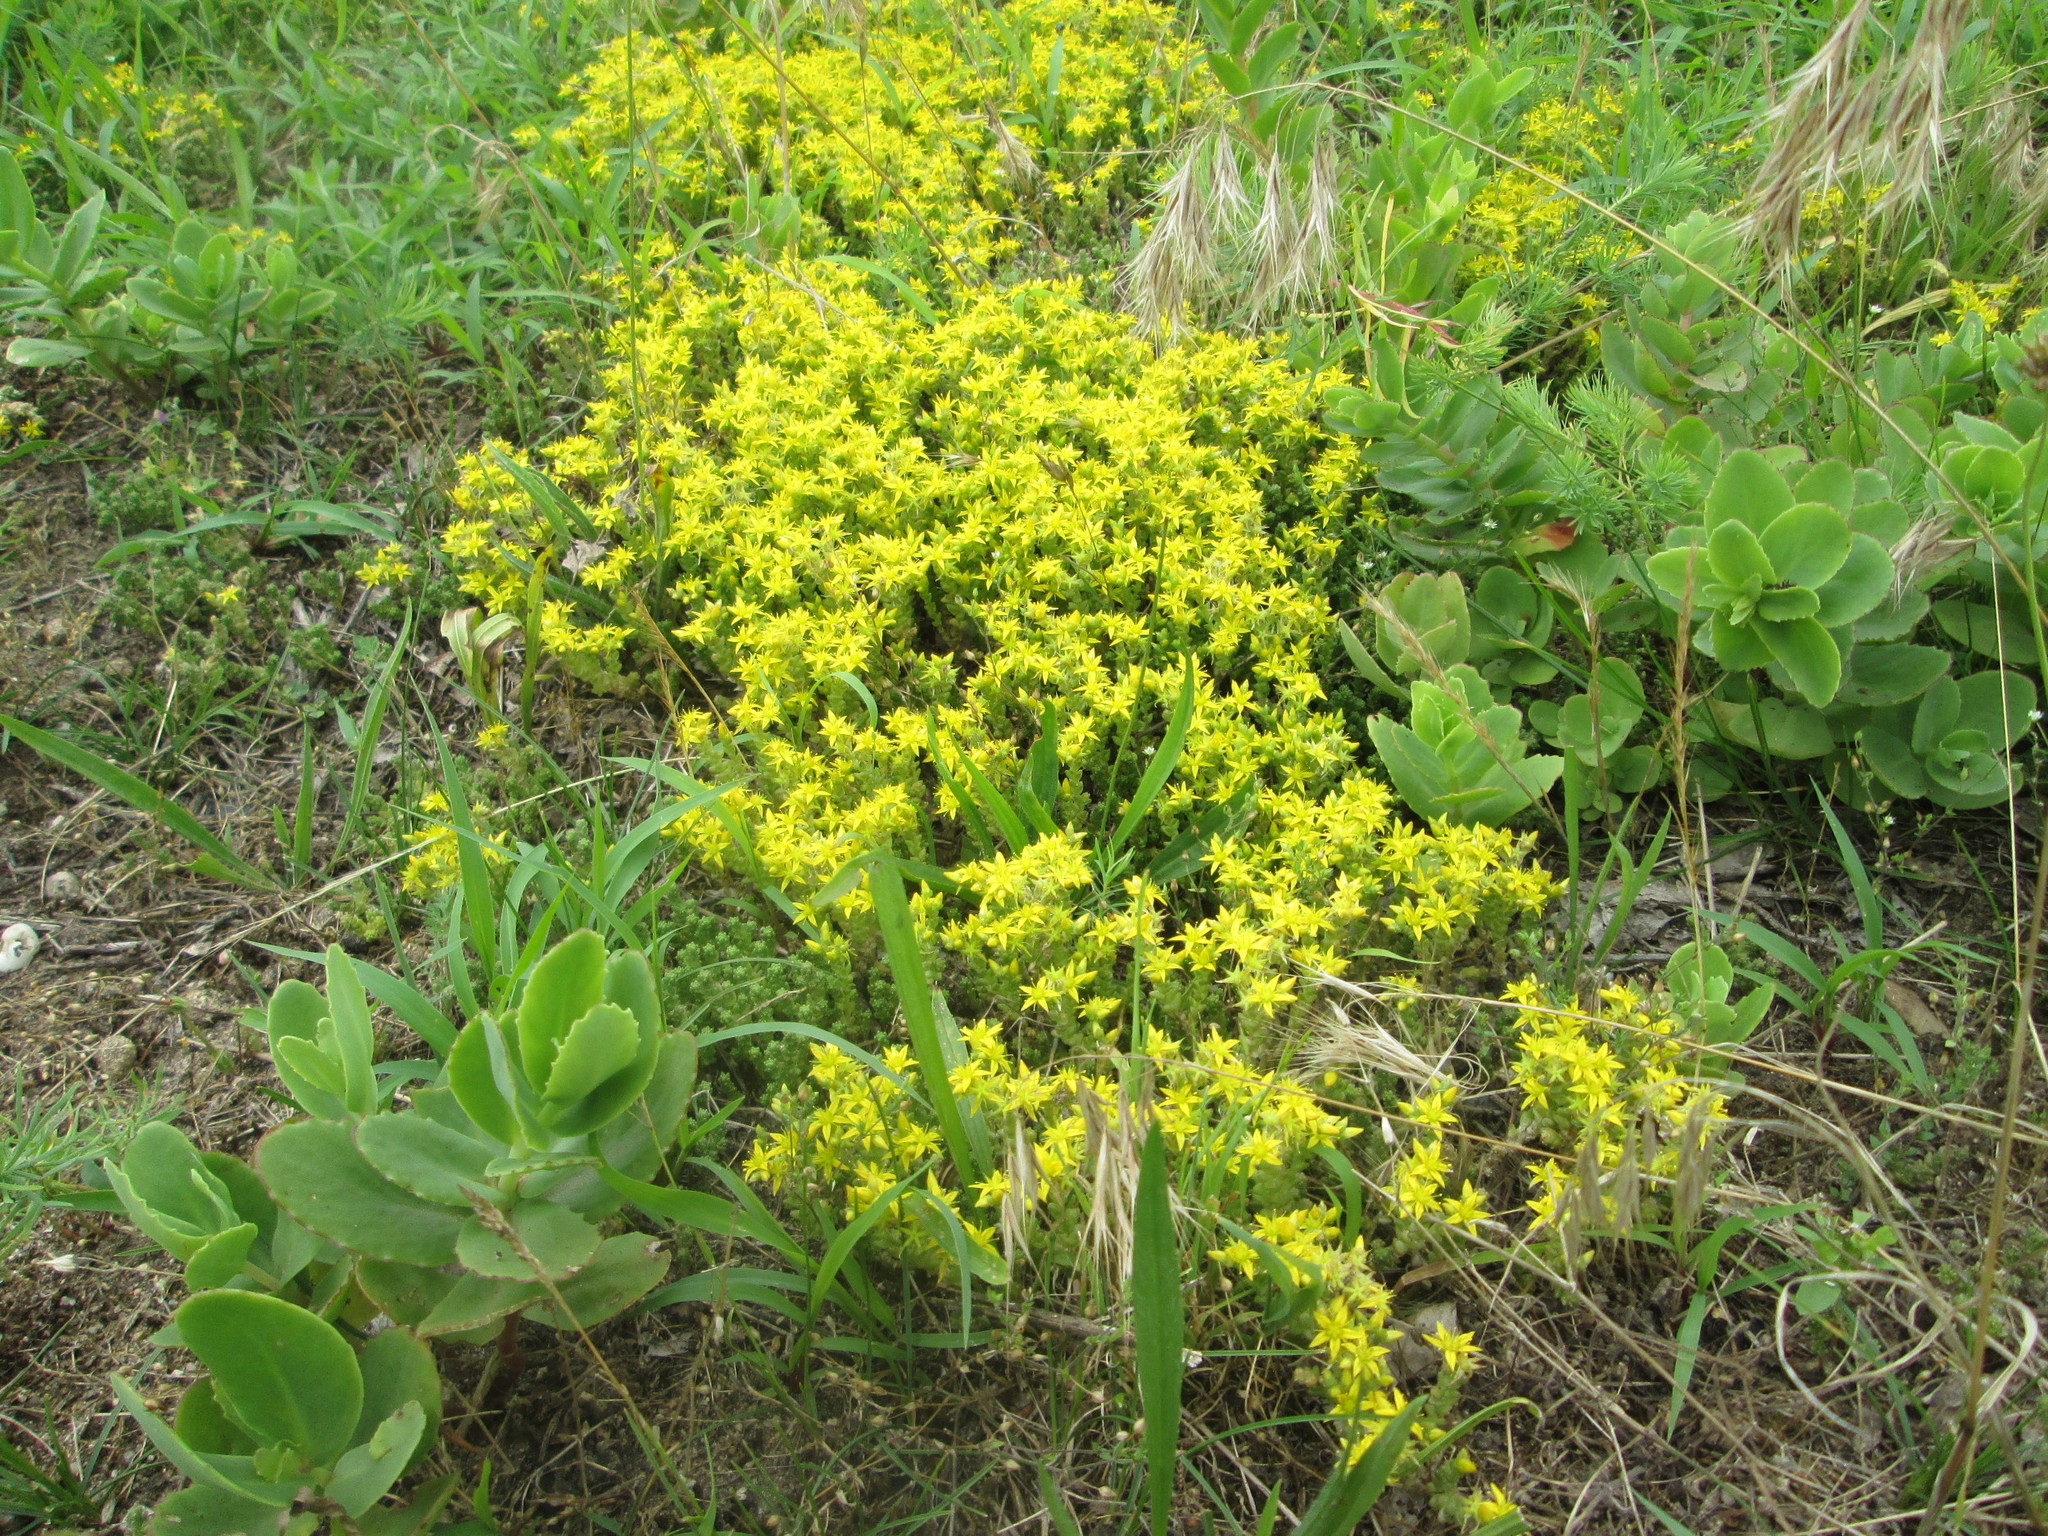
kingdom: Plantae
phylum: Tracheophyta
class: Magnoliopsida
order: Saxifragales
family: Crassulaceae
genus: Sedum
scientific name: Sedum acre
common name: Biting stonecrop
